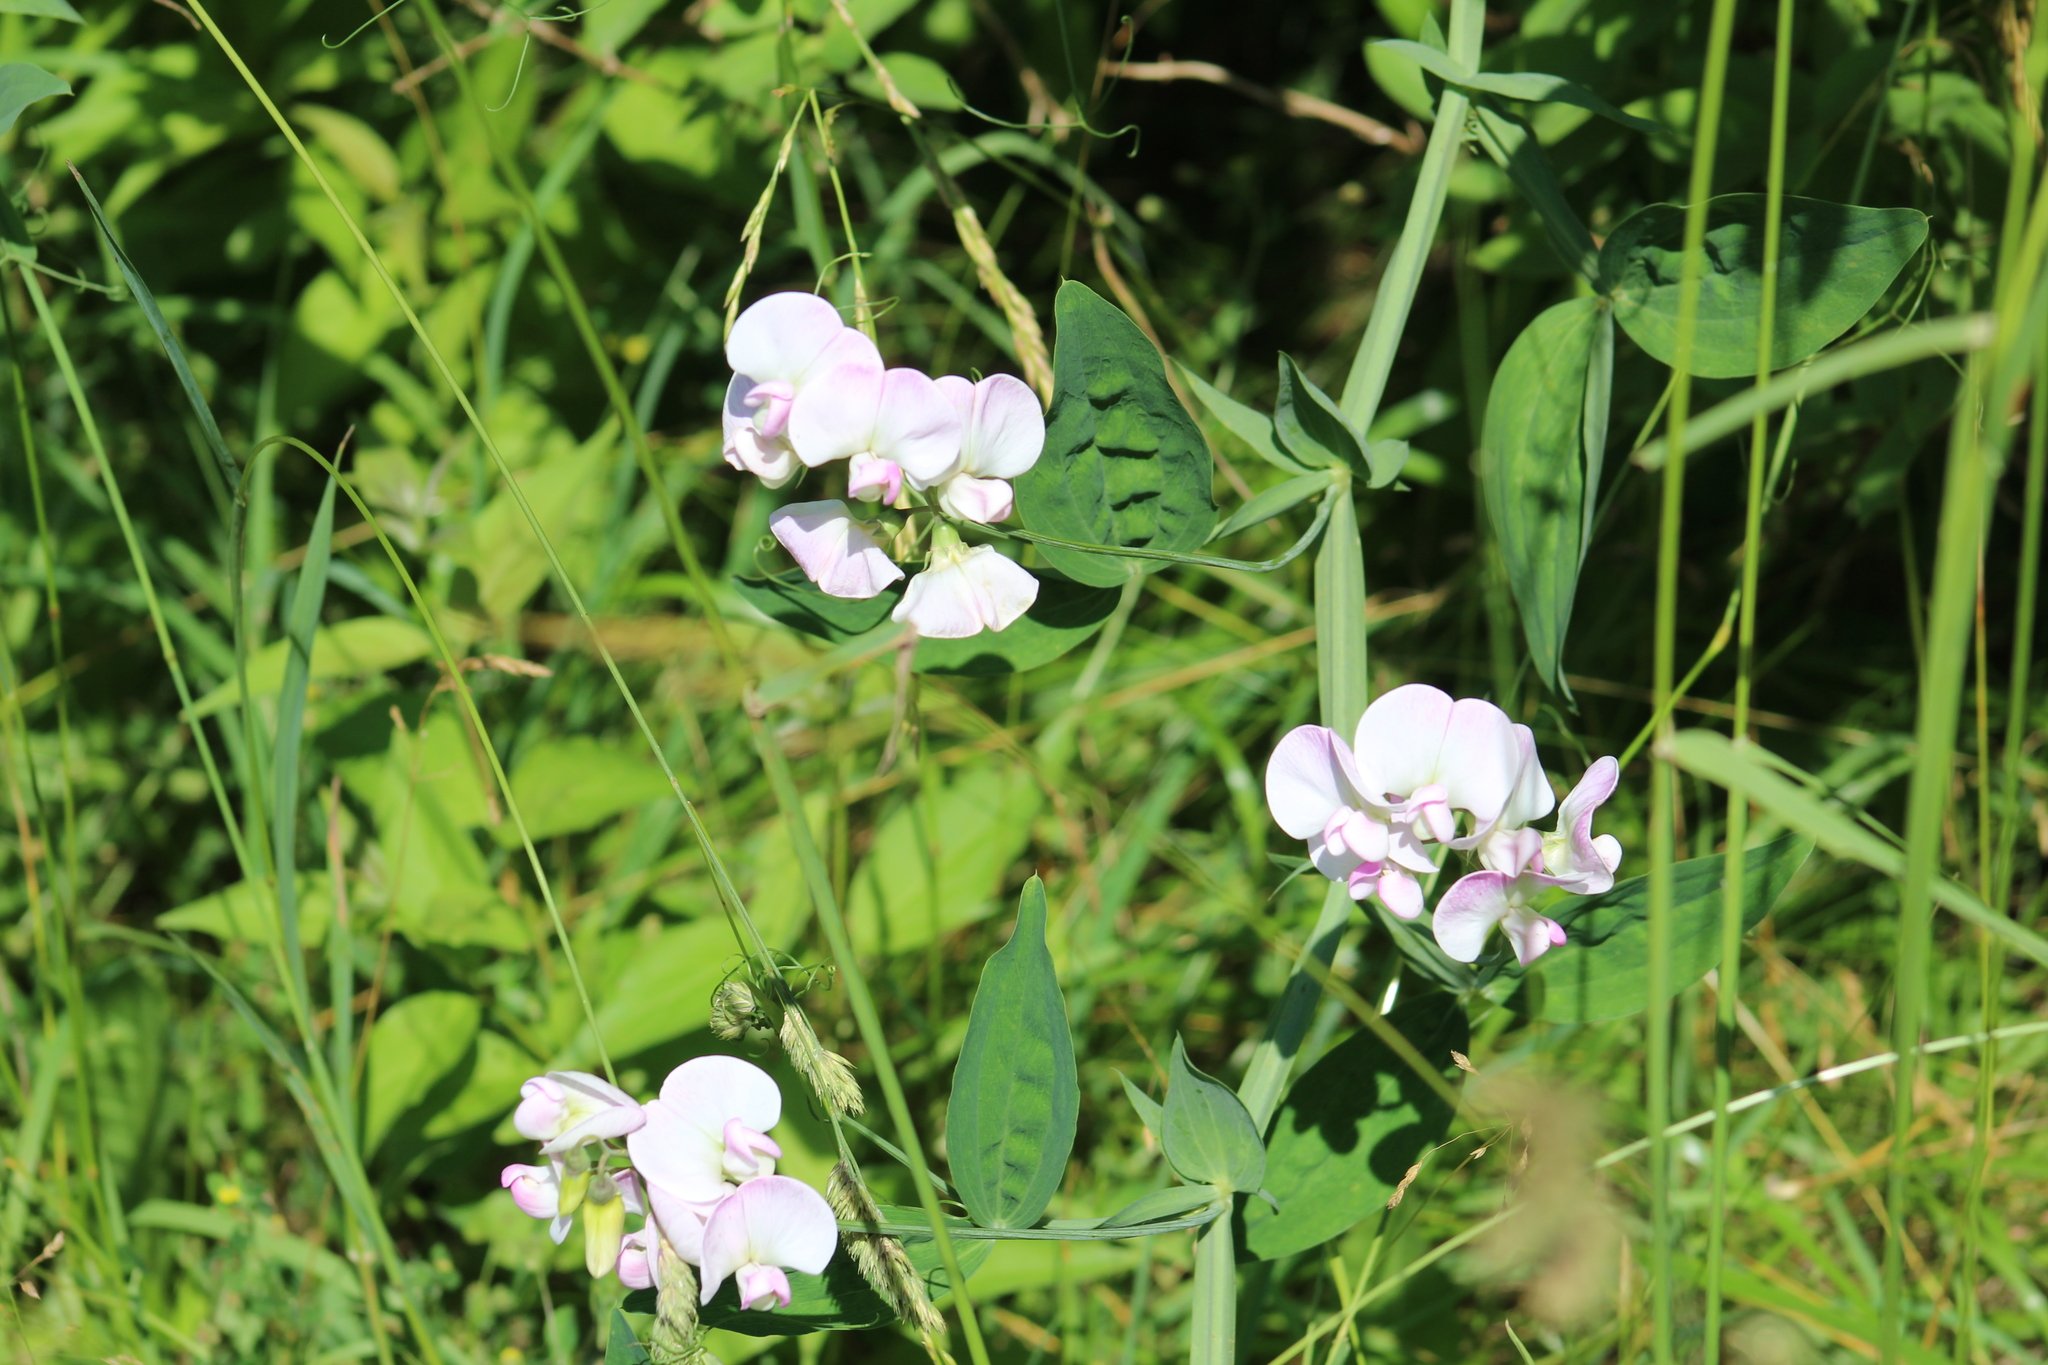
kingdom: Plantae
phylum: Tracheophyta
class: Magnoliopsida
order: Fabales
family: Fabaceae
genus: Lathyrus
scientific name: Lathyrus latifolius
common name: Perennial pea
